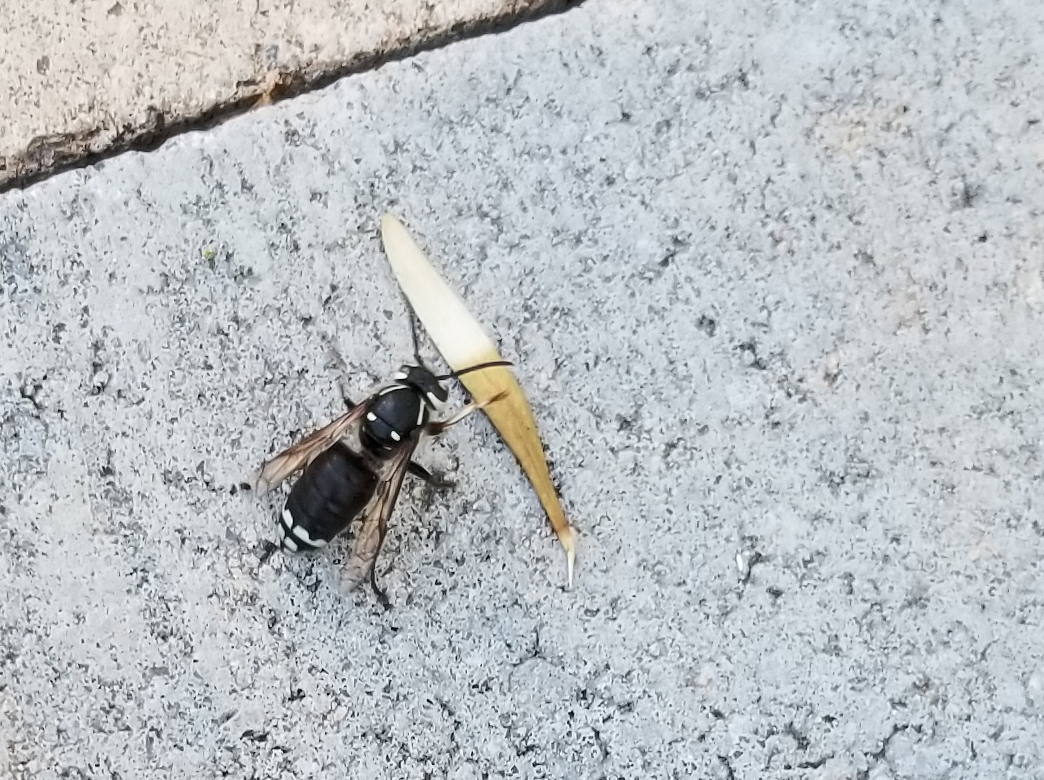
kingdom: Animalia
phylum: Arthropoda
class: Insecta
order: Hymenoptera
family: Vespidae
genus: Dolichovespula
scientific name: Dolichovespula maculata
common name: Bald-faced hornet
